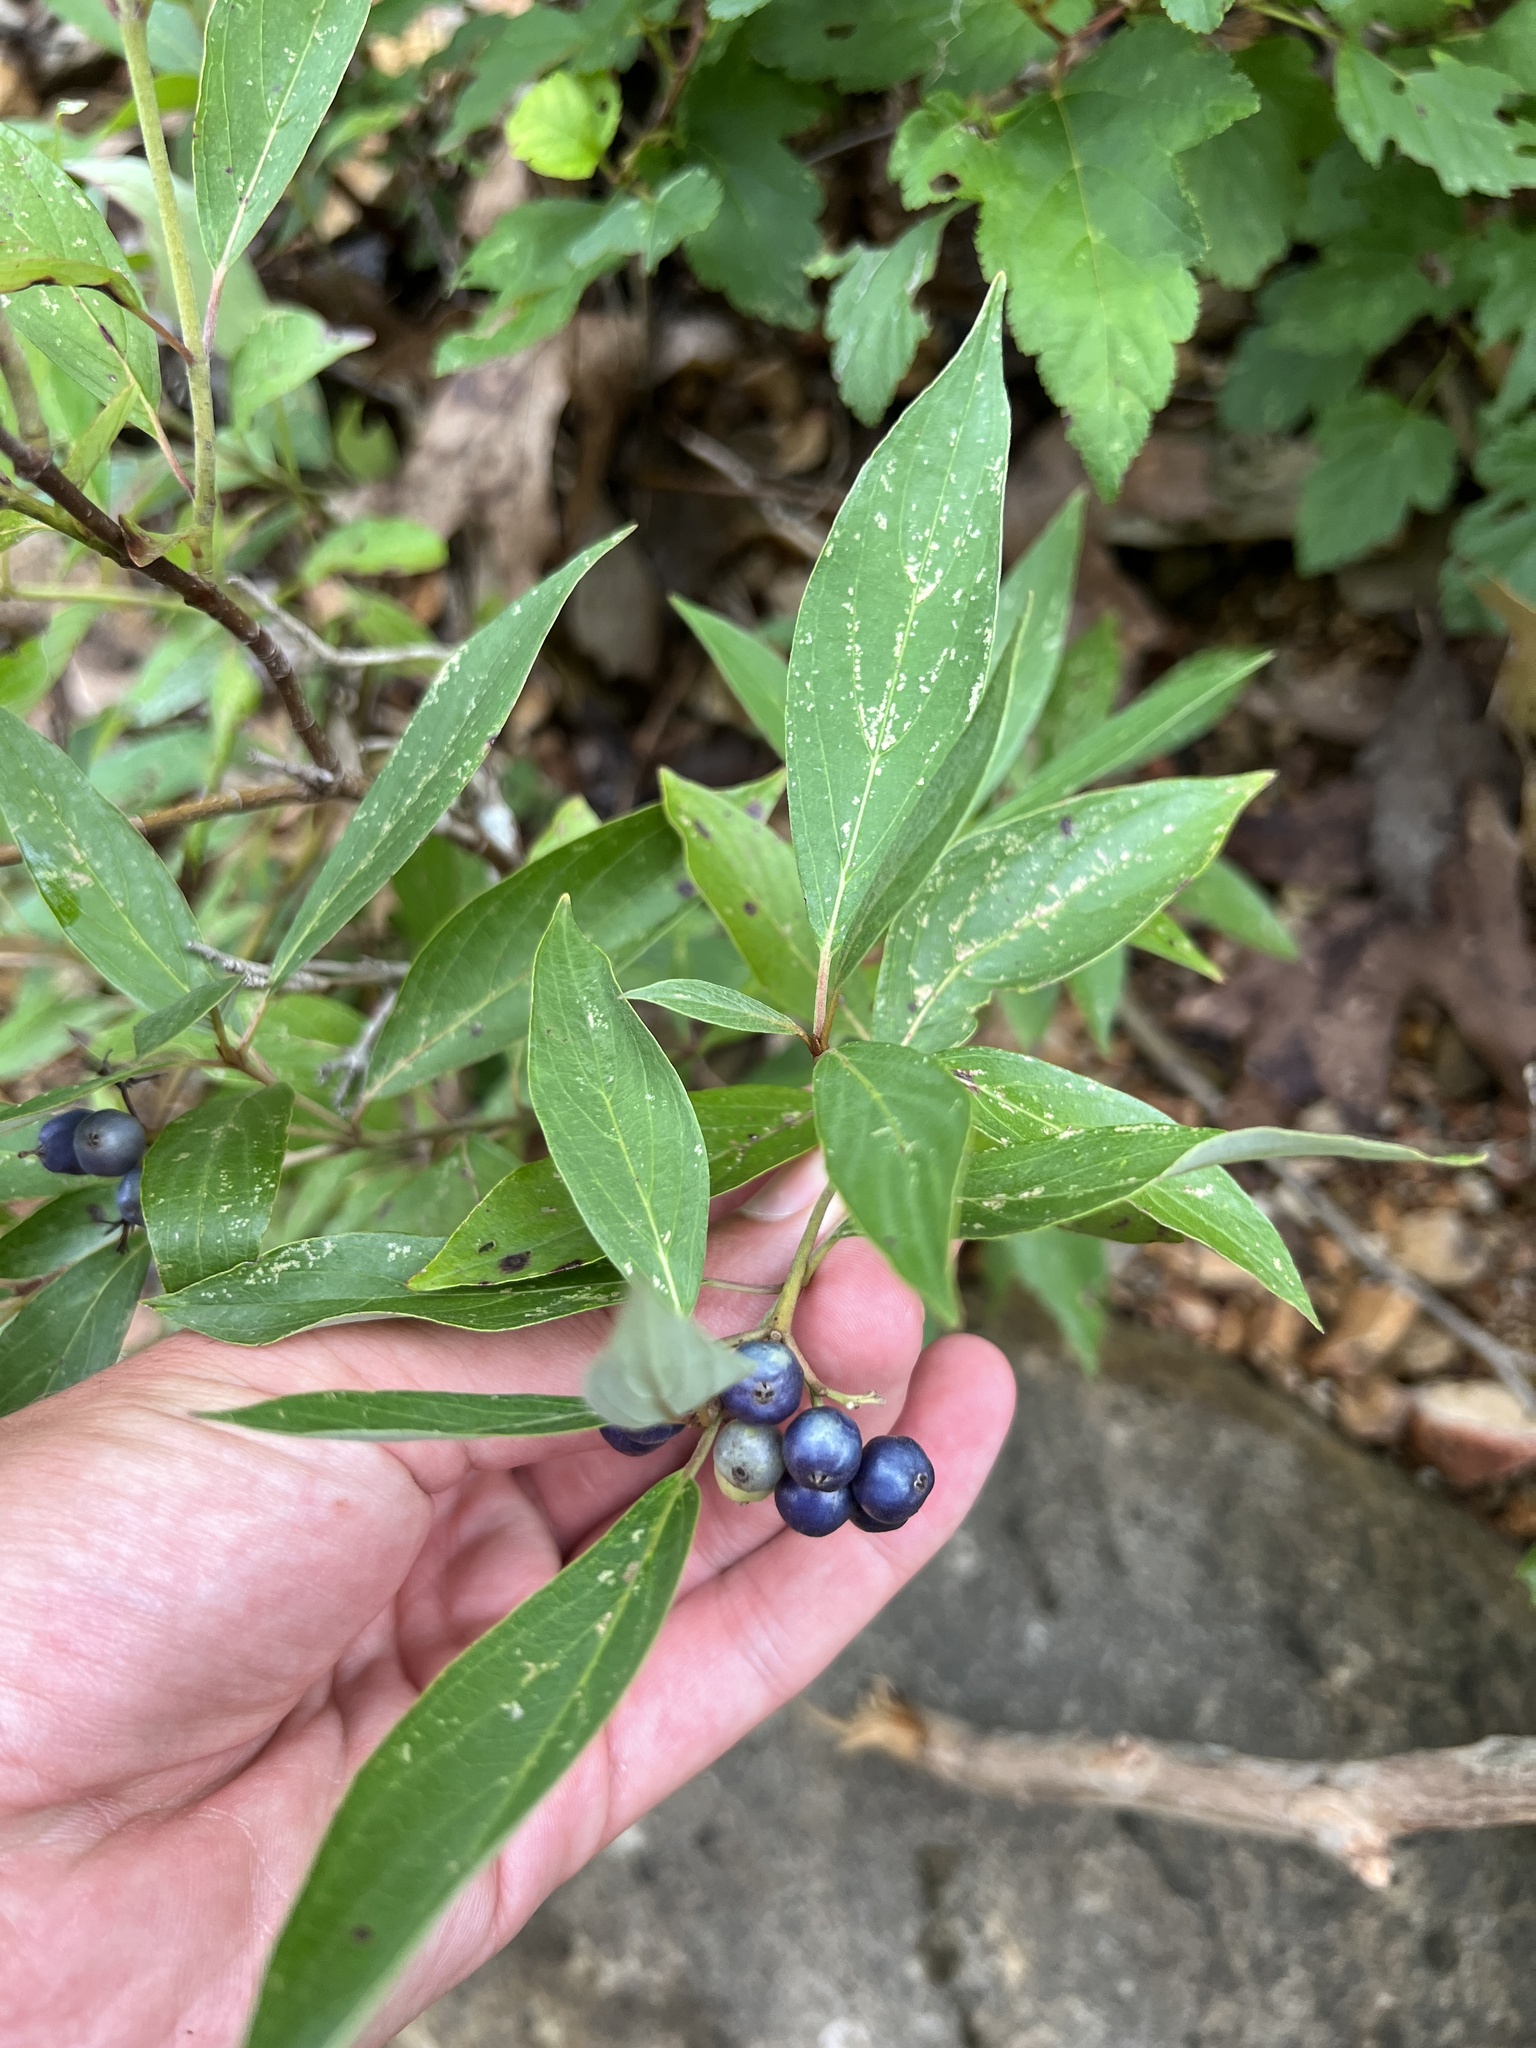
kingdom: Plantae
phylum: Tracheophyta
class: Magnoliopsida
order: Cornales
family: Cornaceae
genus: Cornus
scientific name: Cornus obliqua
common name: Pale dogwood
